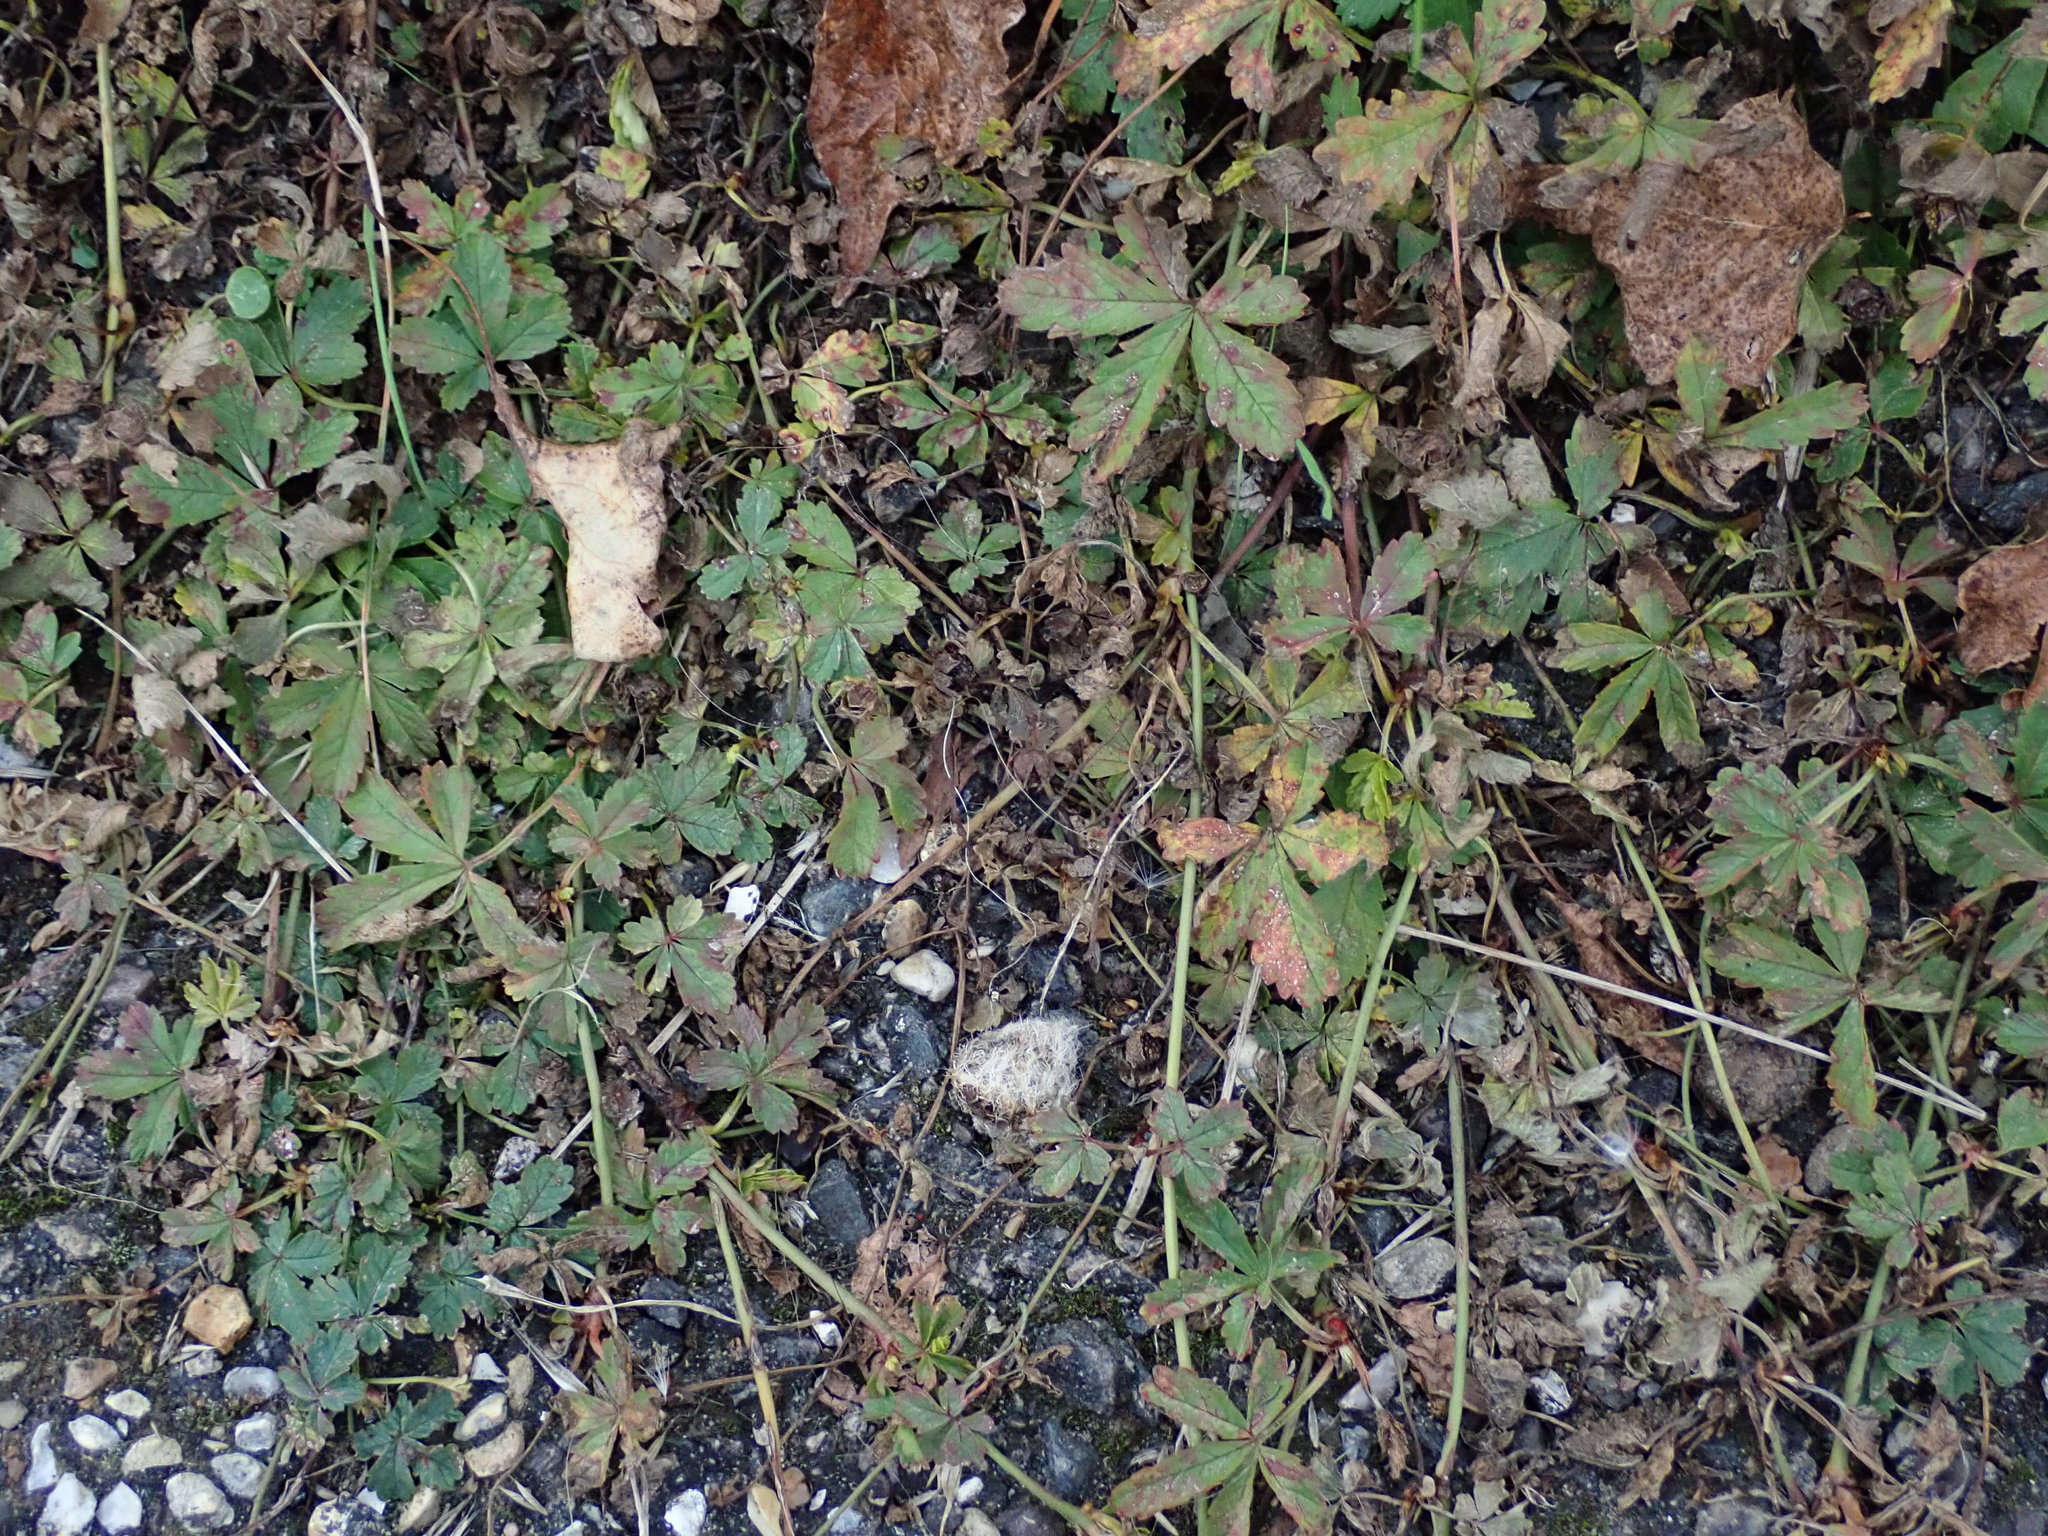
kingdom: Plantae
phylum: Tracheophyta
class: Magnoliopsida
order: Rosales
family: Rosaceae
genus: Potentilla
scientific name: Potentilla reptans
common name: Creeping cinquefoil
